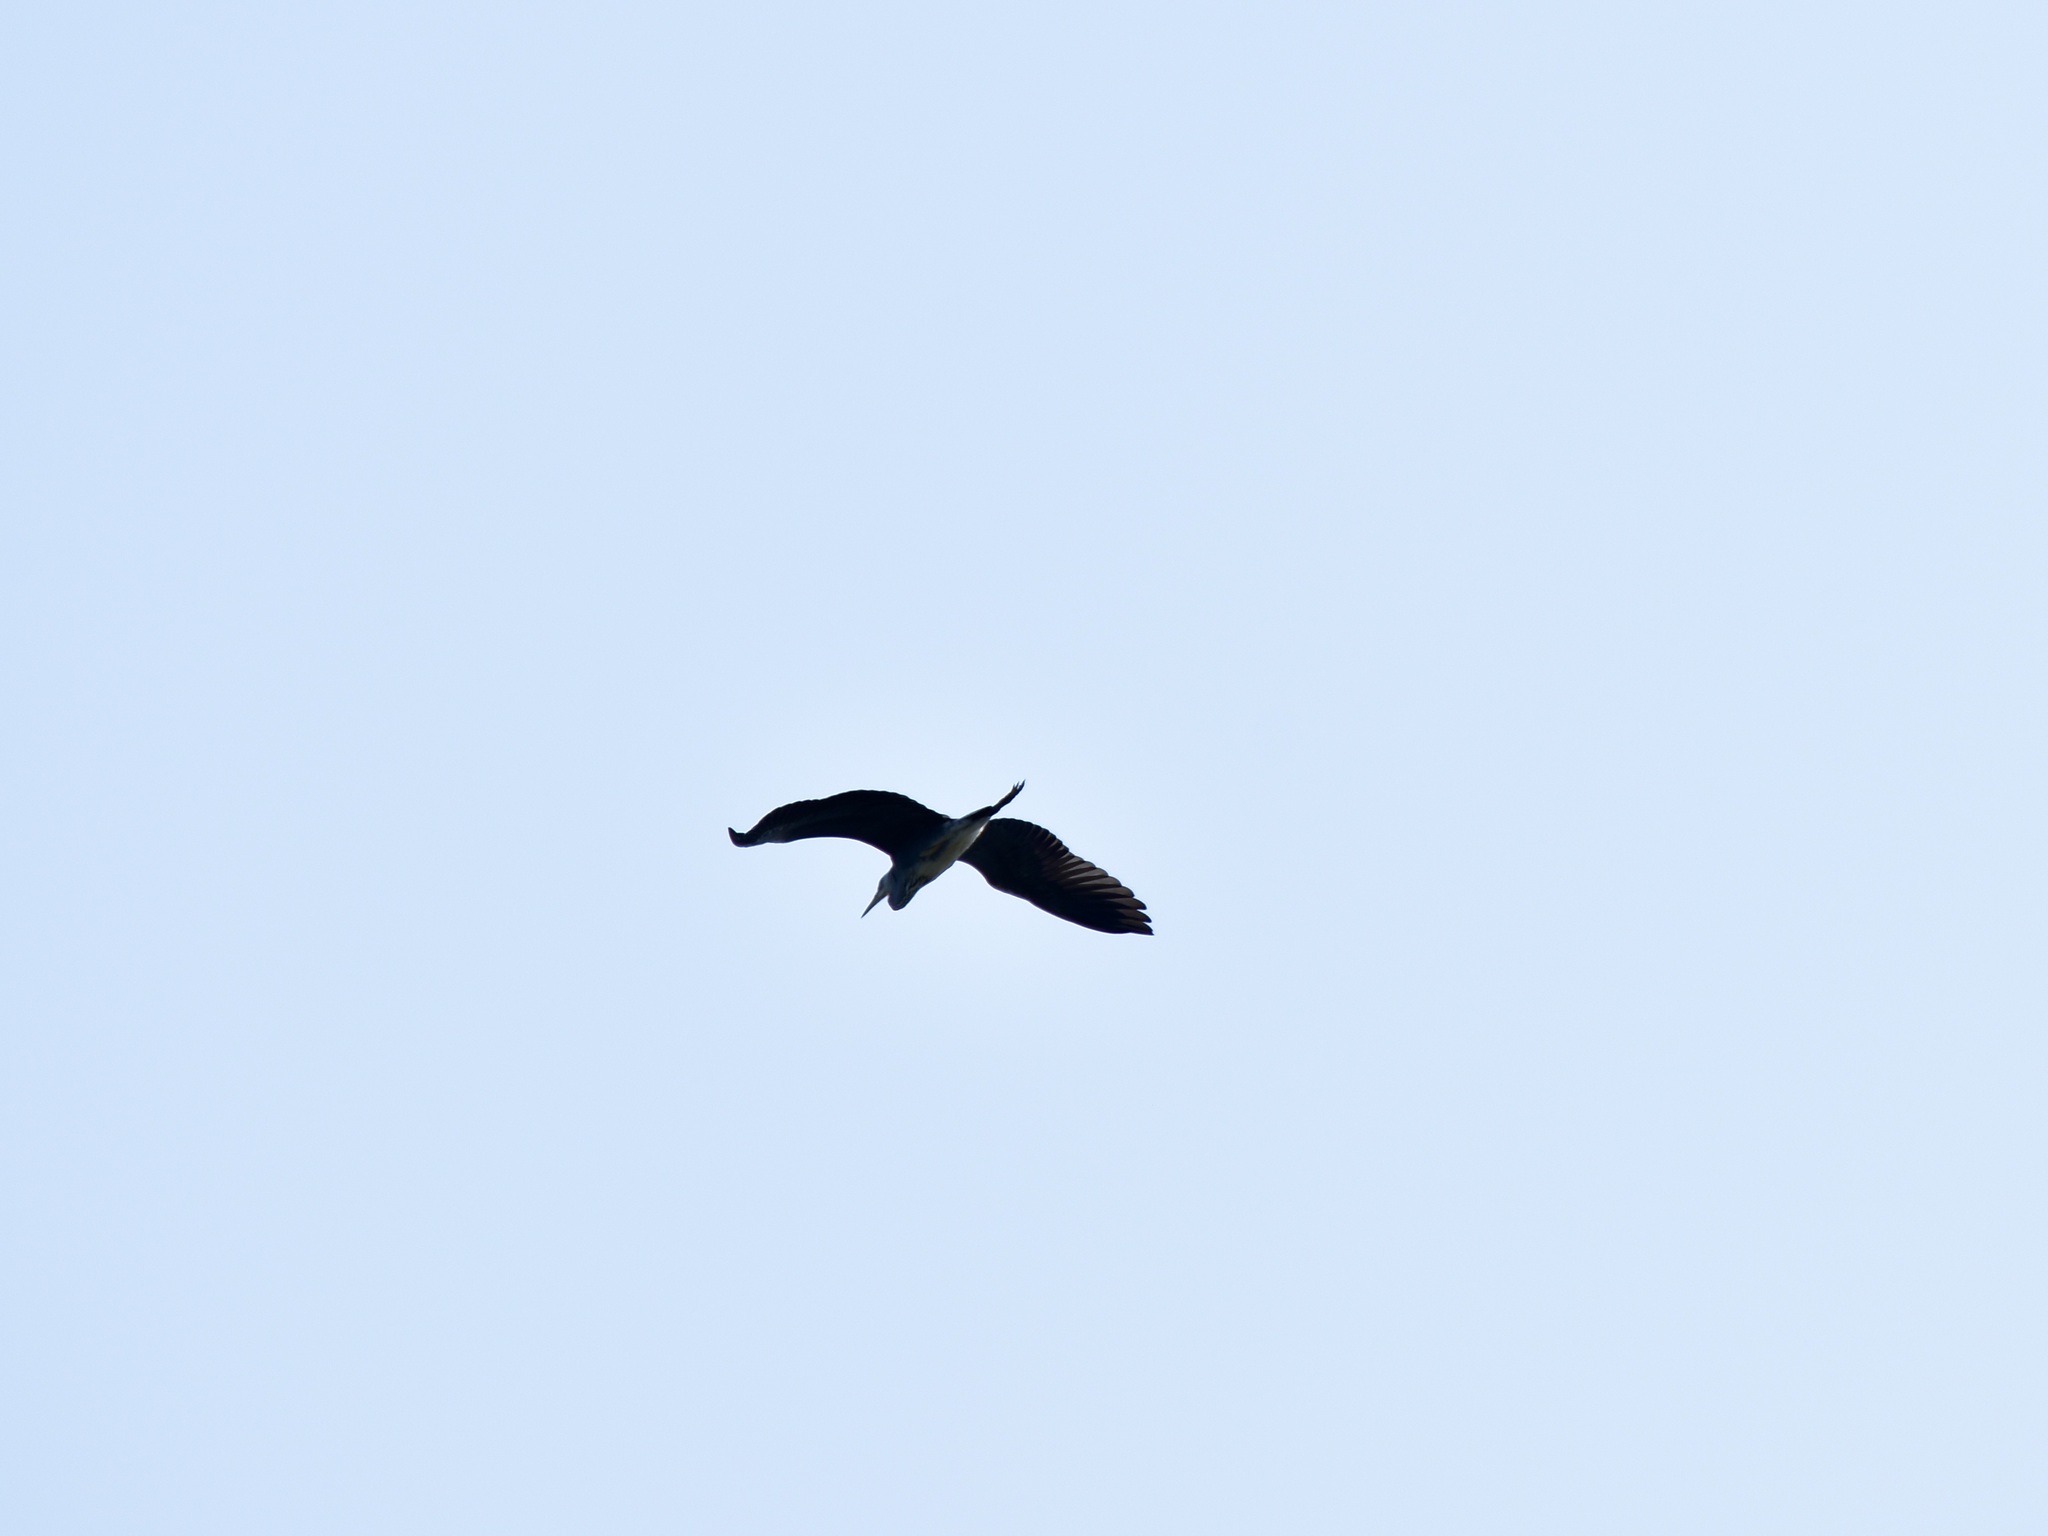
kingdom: Animalia
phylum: Chordata
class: Aves
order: Pelecaniformes
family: Ardeidae
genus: Ardea
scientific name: Ardea cinerea
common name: Grey heron
